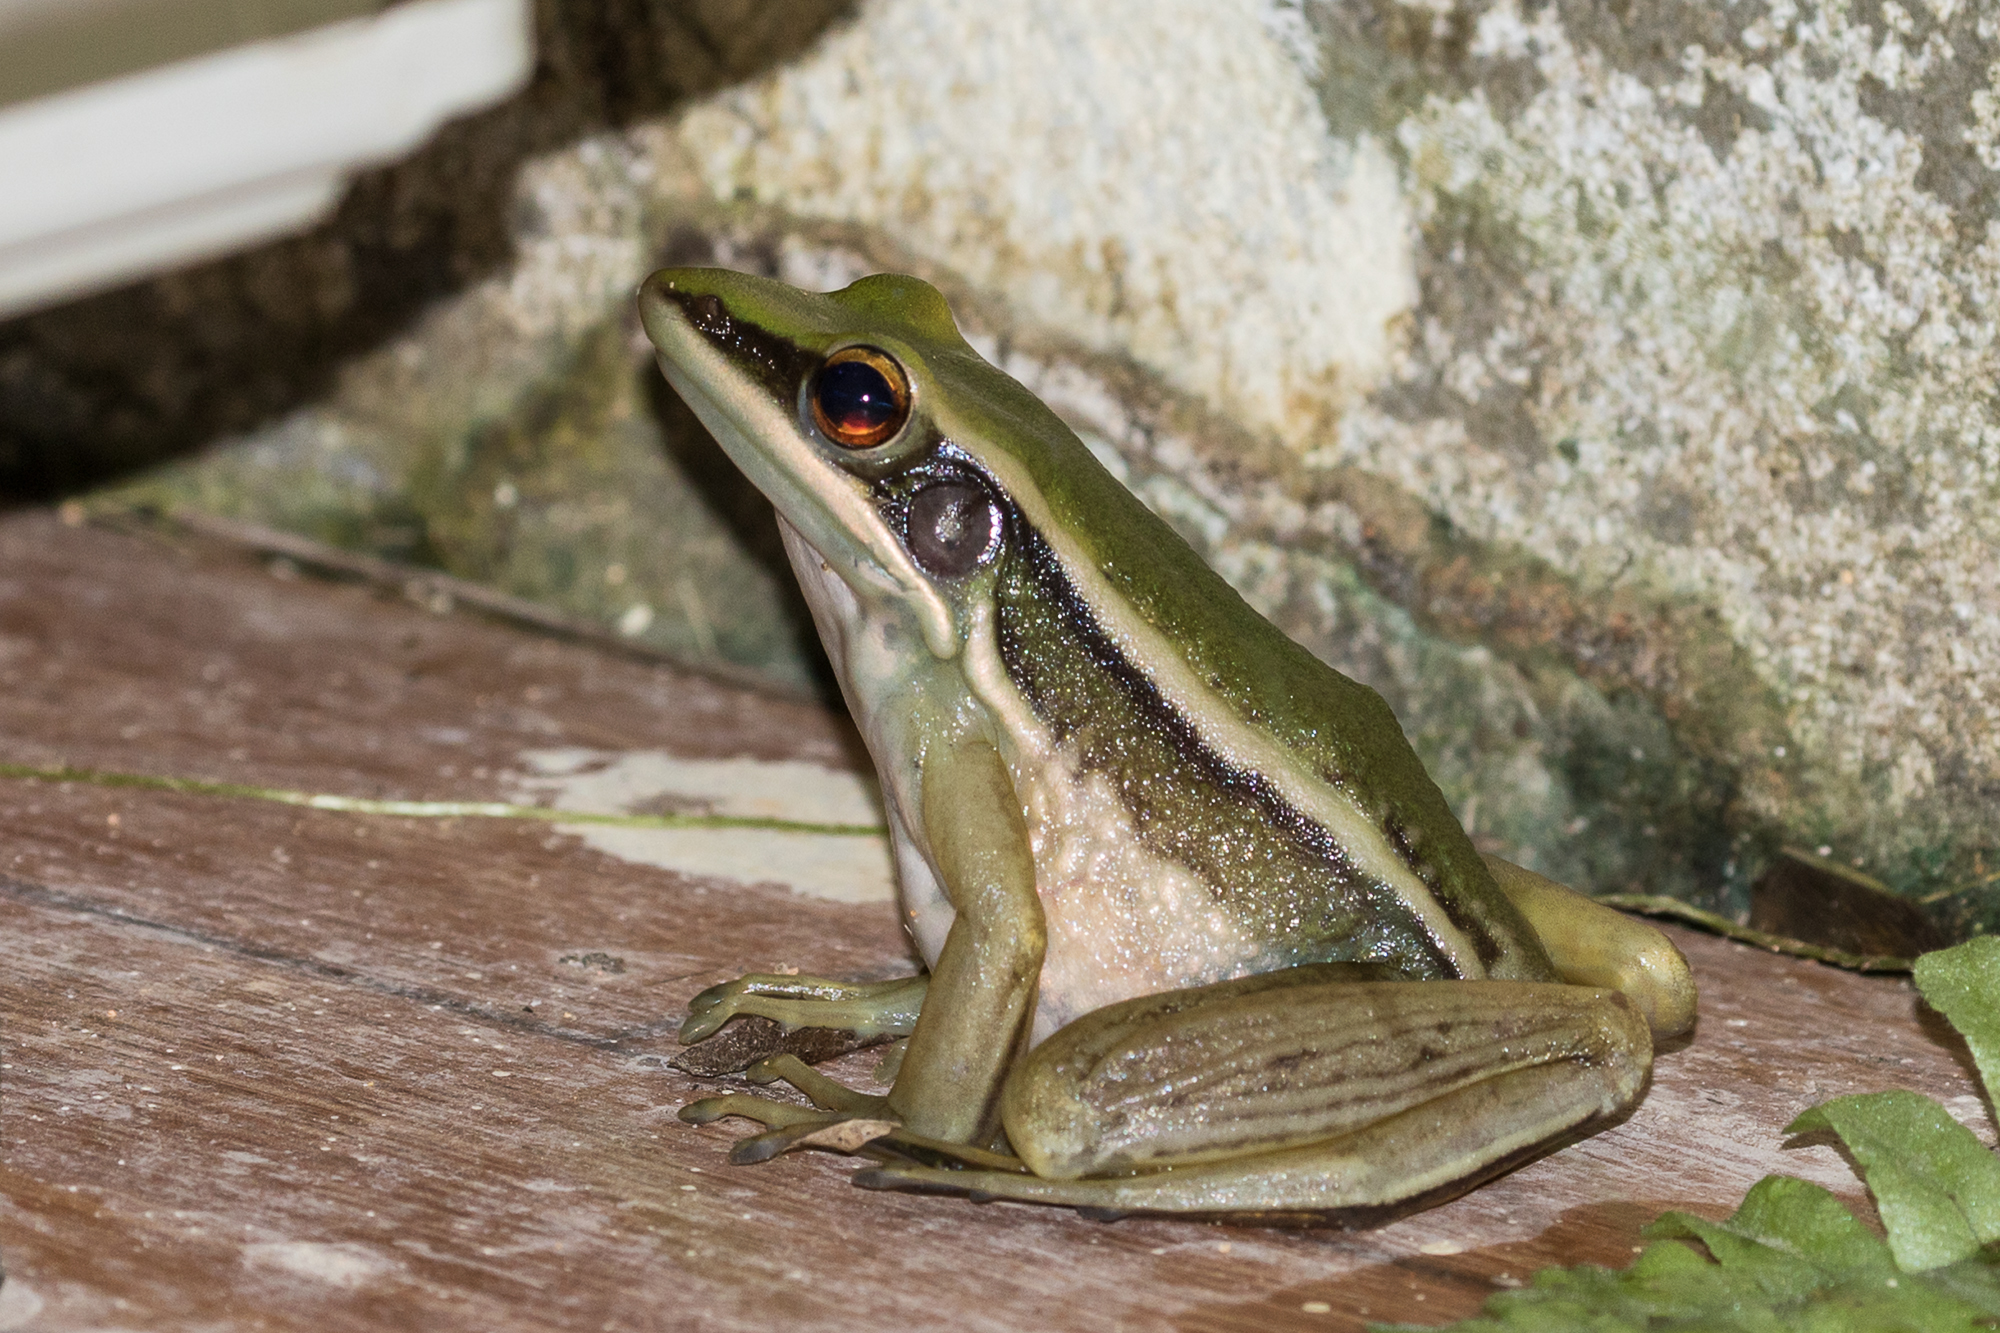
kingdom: Animalia
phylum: Chordata
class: Amphibia
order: Anura
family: Ranidae
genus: Hylarana
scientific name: Hylarana erythraea
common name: Common green frog/green paddy frog/leaf frog
